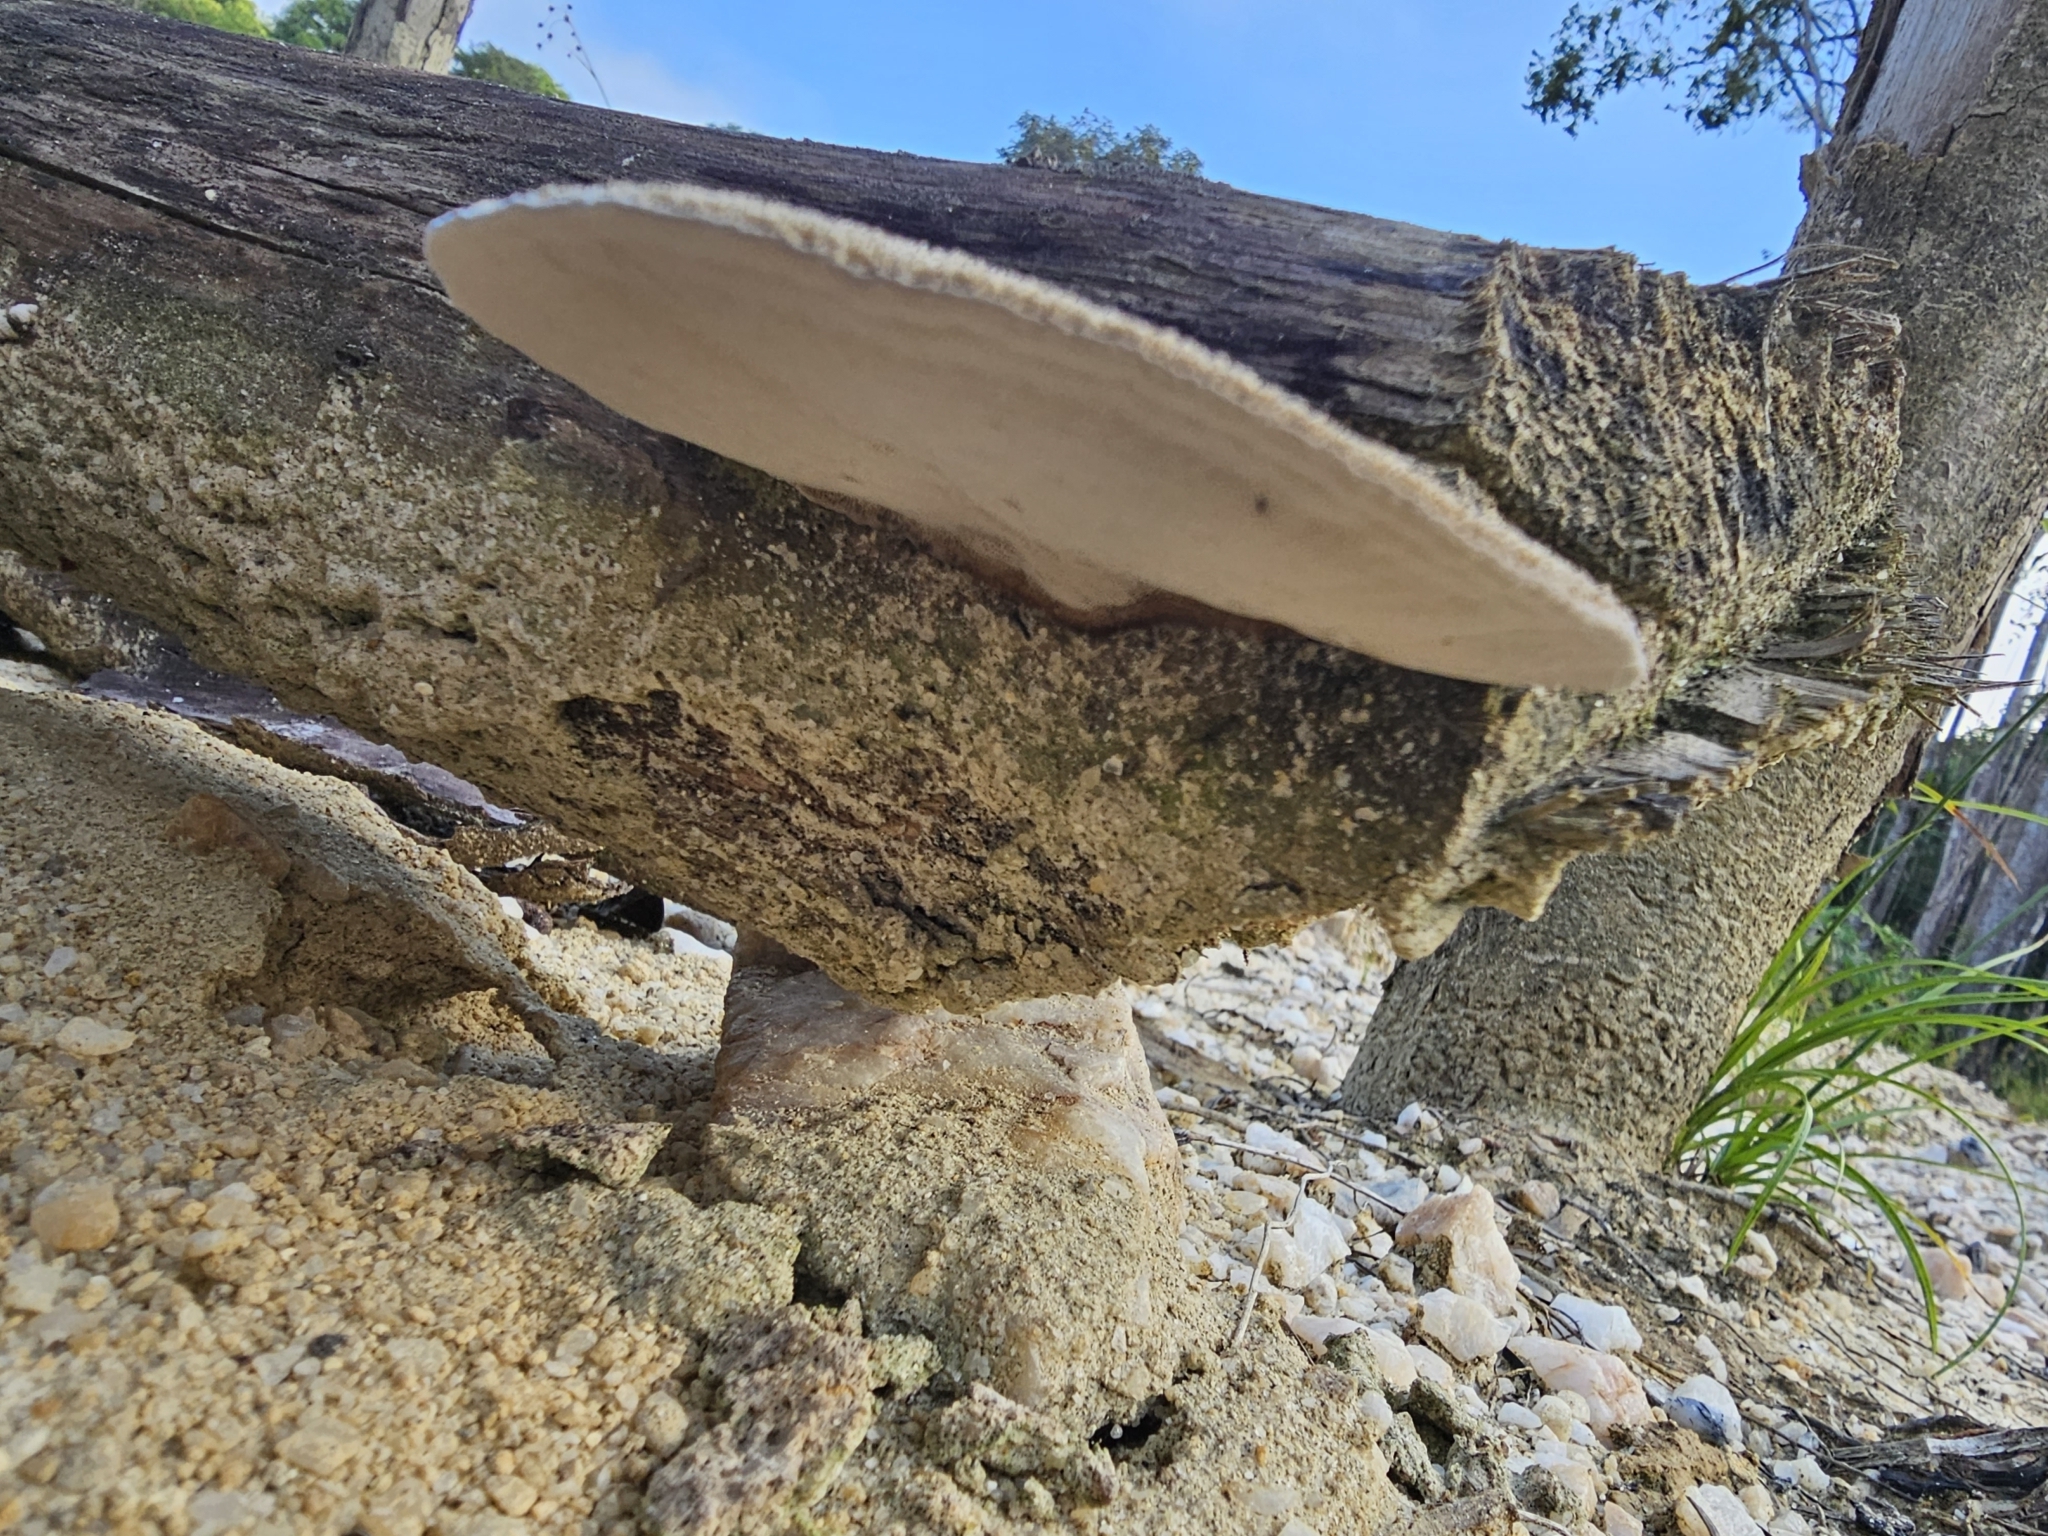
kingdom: Fungi
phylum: Basidiomycota
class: Agaricomycetes
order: Polyporales
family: Cerrenaceae
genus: Cerrena
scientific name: Cerrena hydnoides
